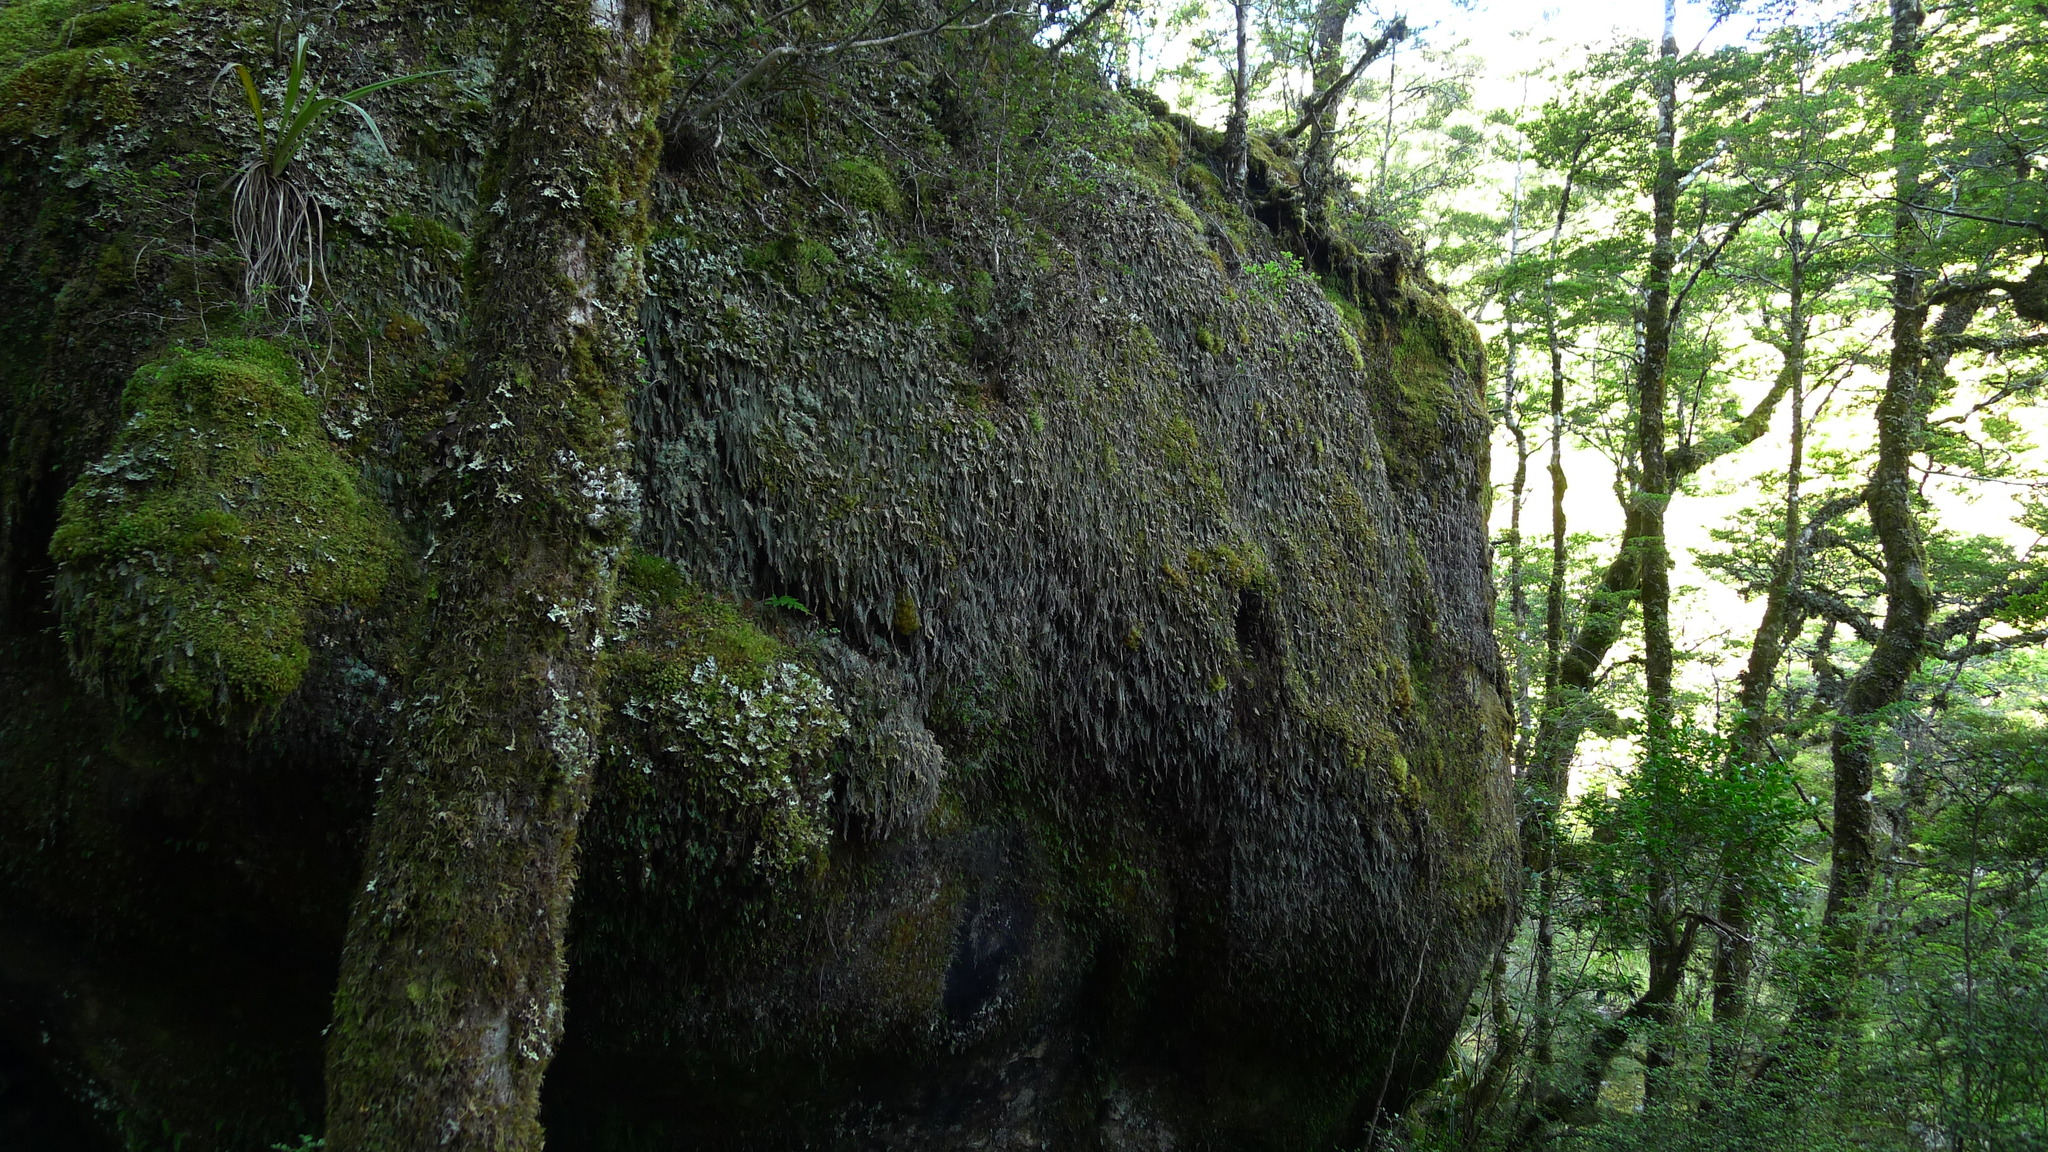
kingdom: Plantae
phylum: Tracheophyta
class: Polypodiopsida
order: Hymenophyllales
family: Hymenophyllaceae
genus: Hymenophyllum
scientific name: Hymenophyllum malingii
